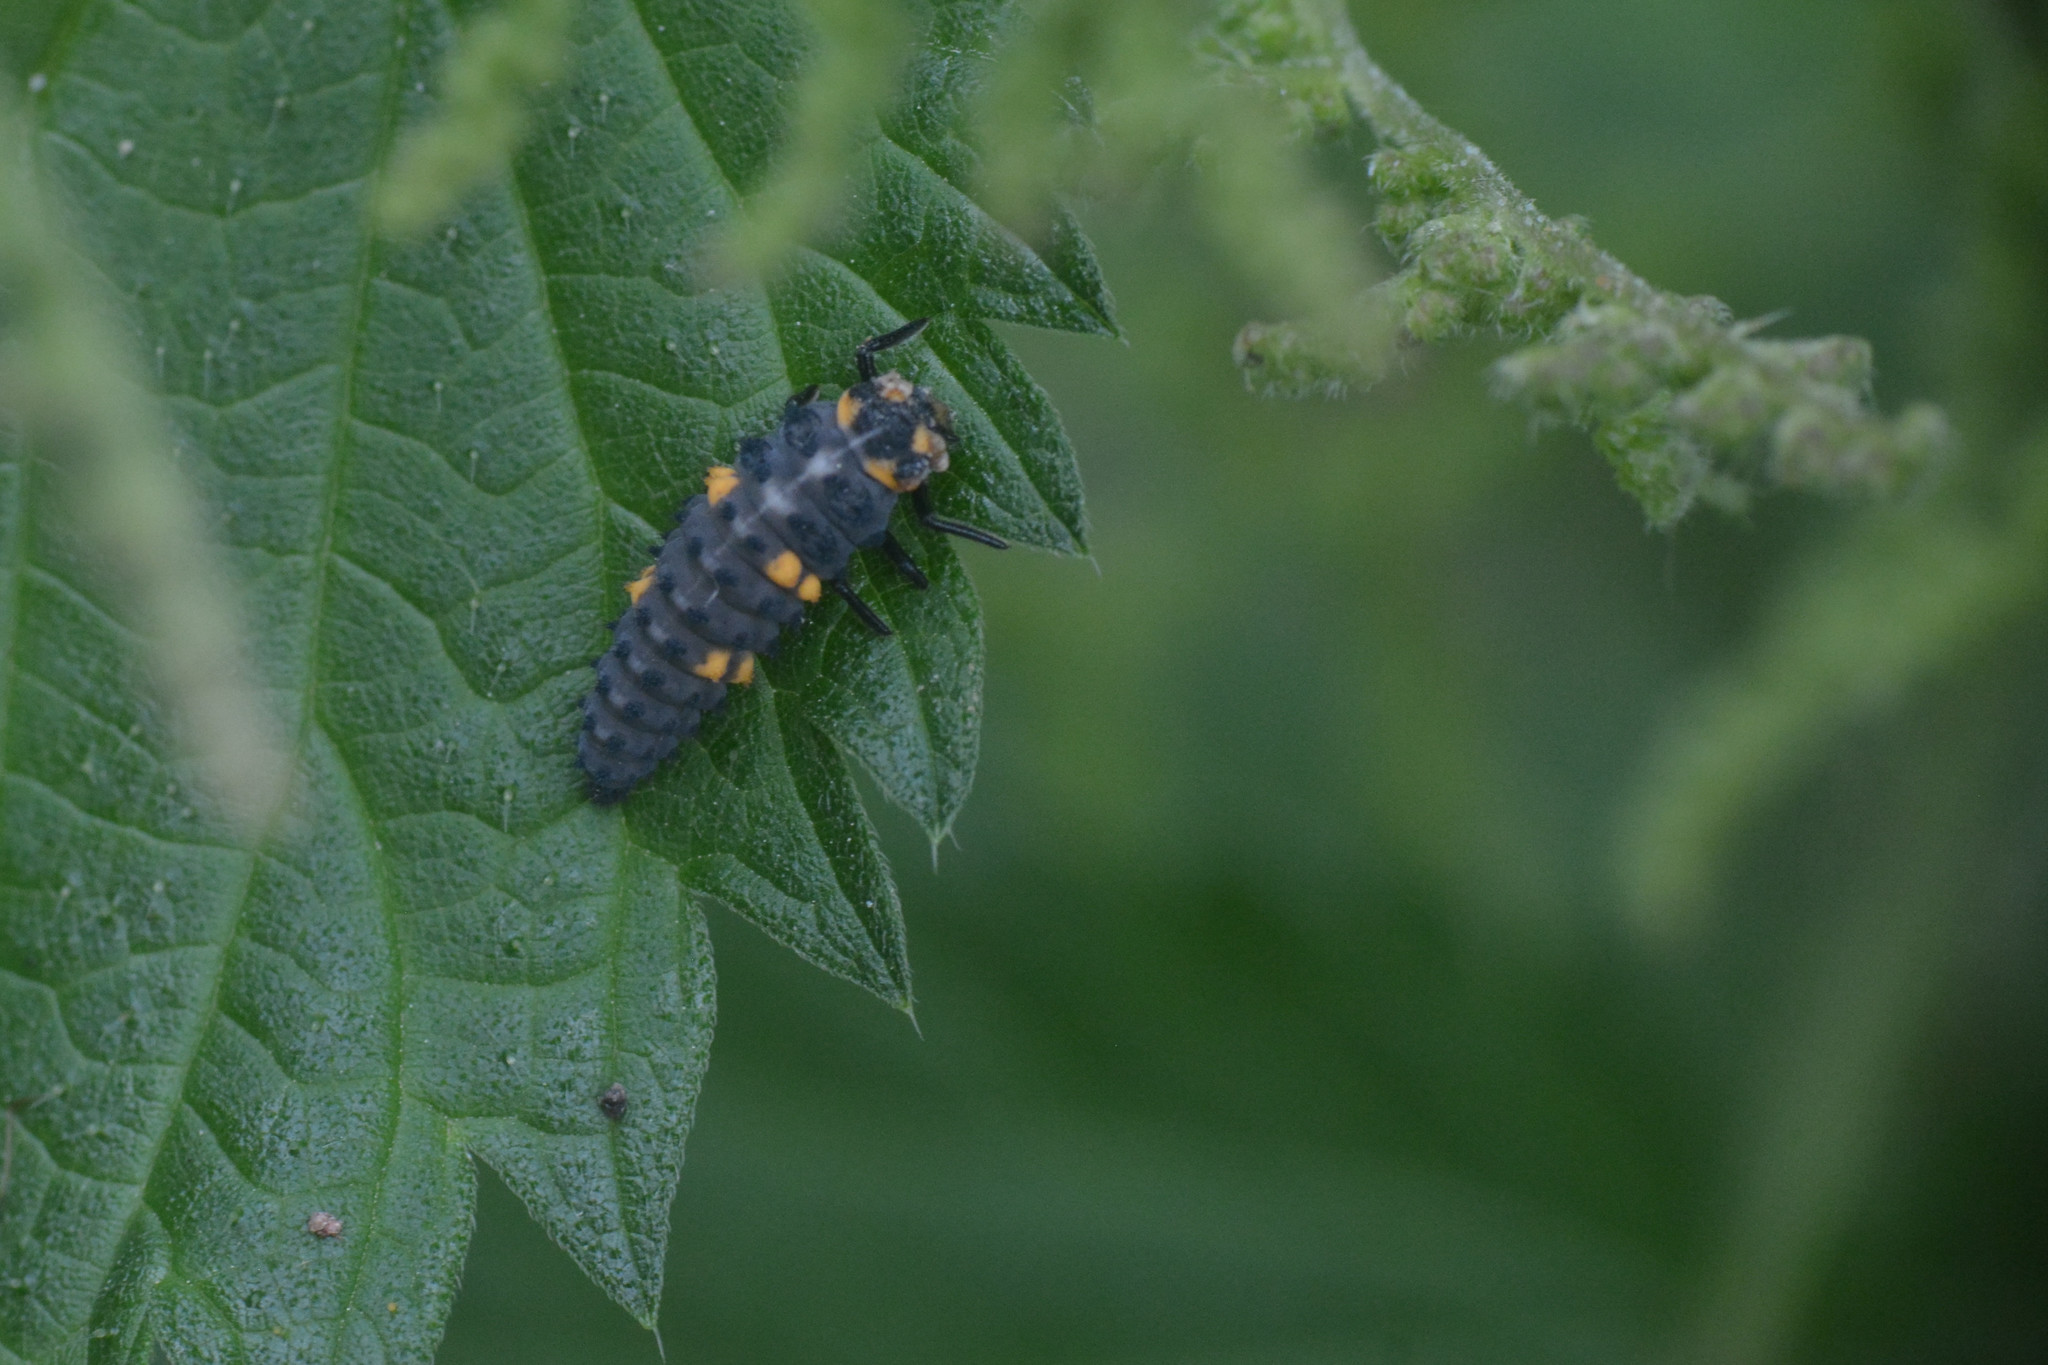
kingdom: Animalia
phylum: Arthropoda
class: Insecta
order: Coleoptera
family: Coccinellidae
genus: Coccinella
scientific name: Coccinella septempunctata
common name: Sevenspotted lady beetle
